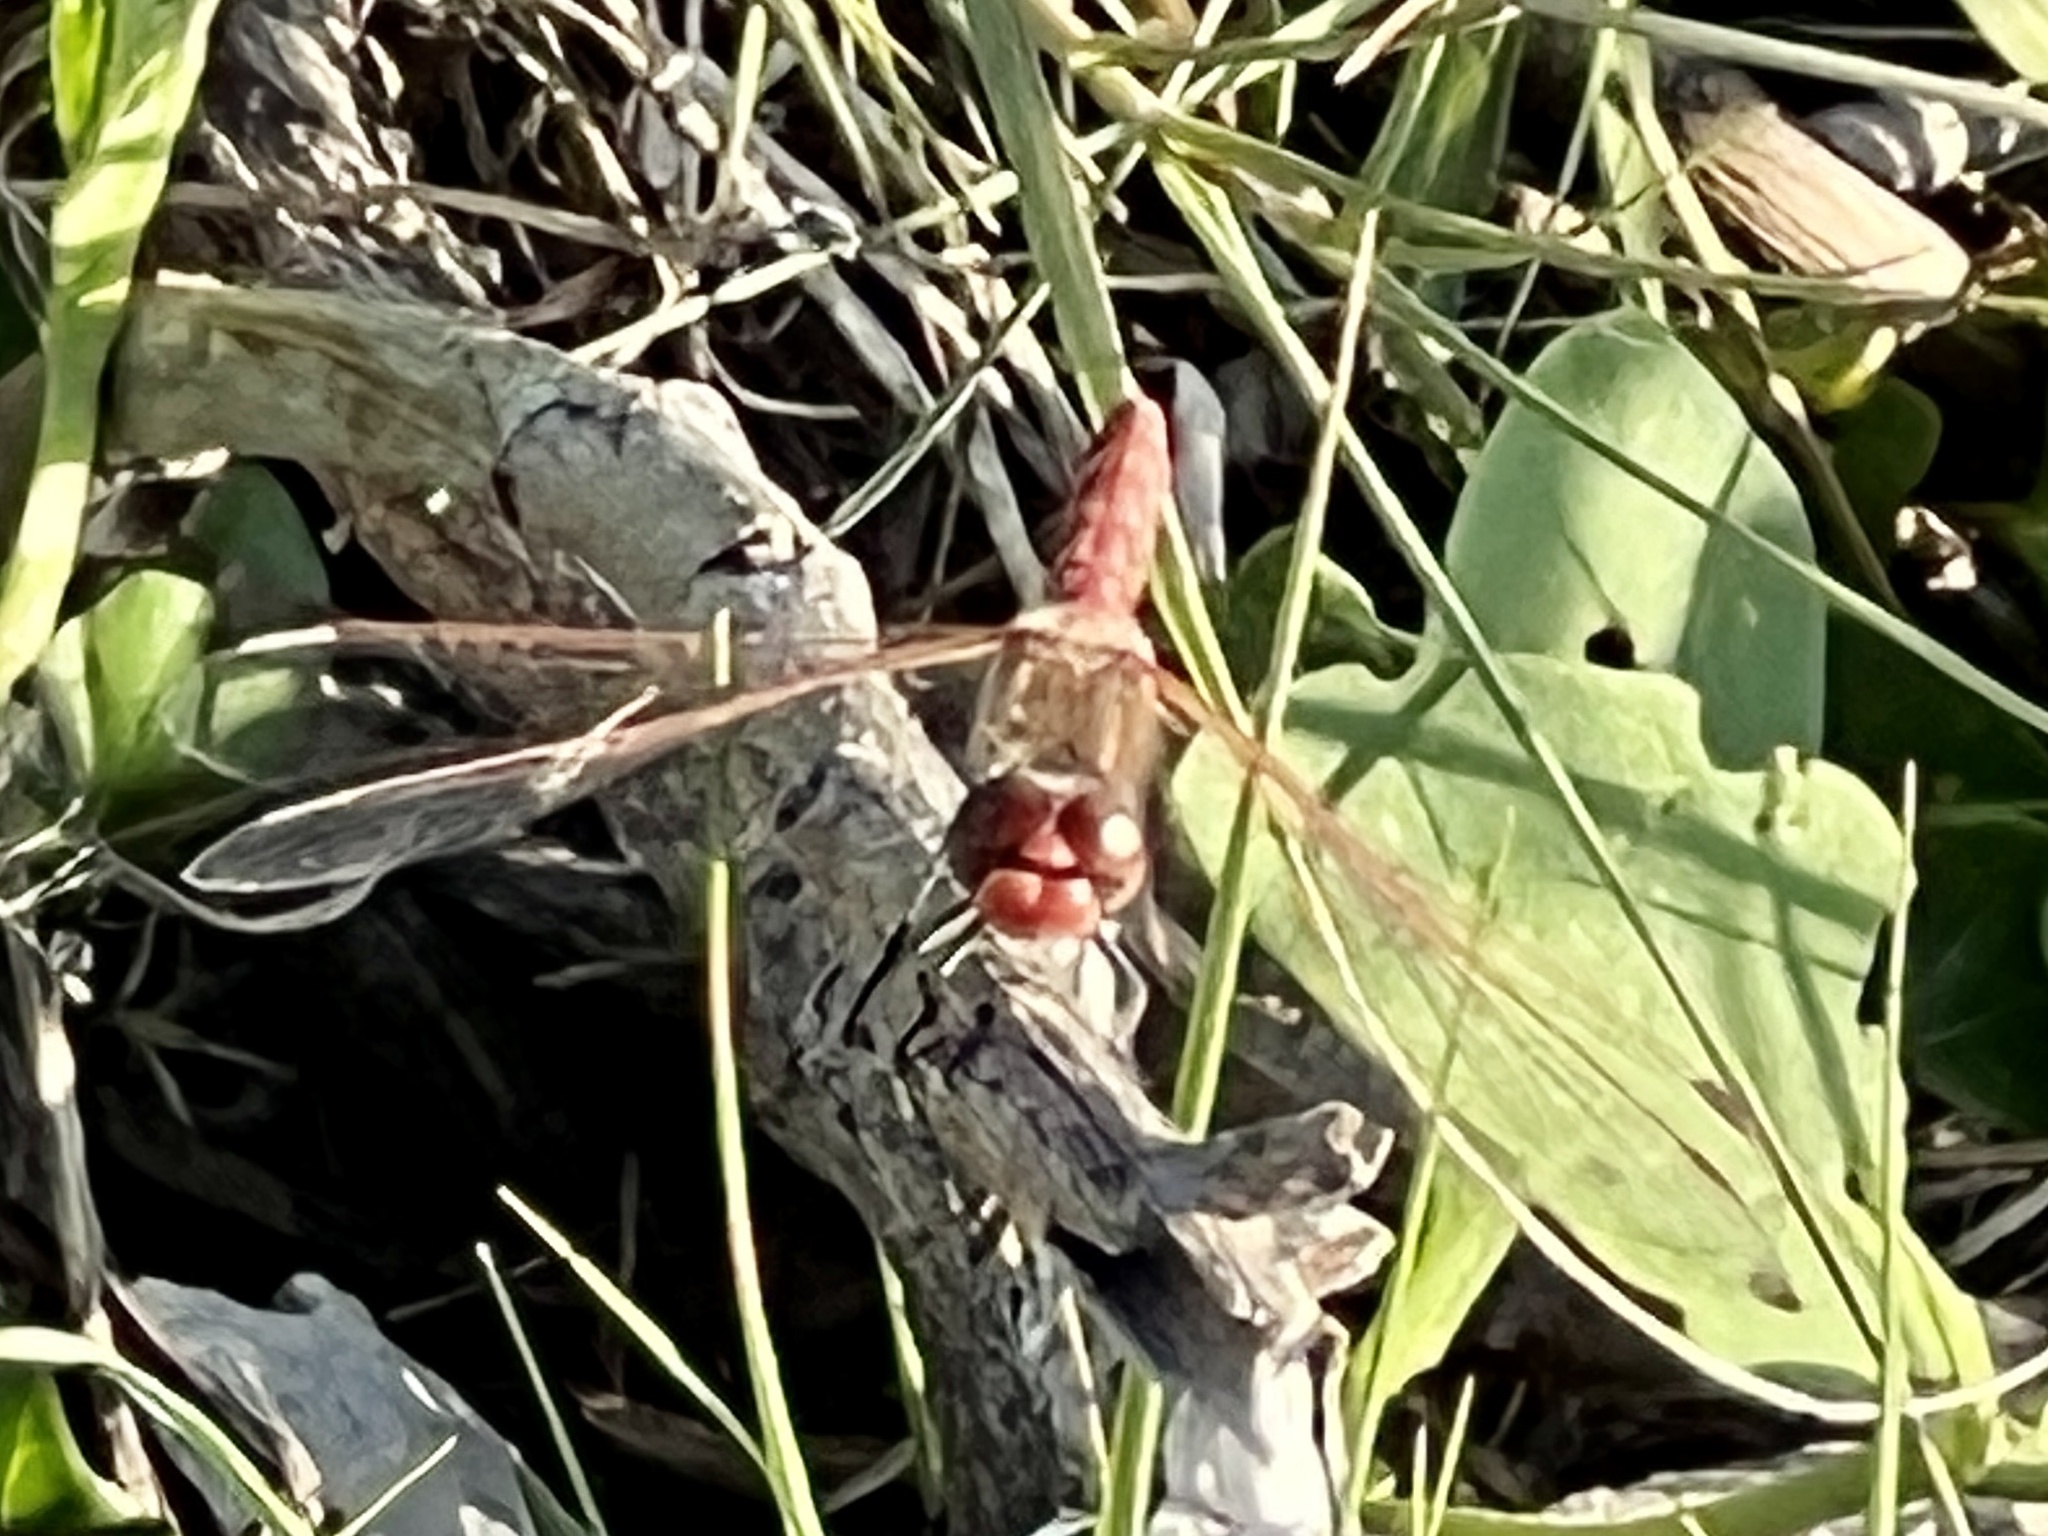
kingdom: Animalia
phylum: Arthropoda
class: Insecta
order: Odonata
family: Libellulidae
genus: Sympetrum
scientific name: Sympetrum corruptum
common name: Variegated meadowhawk
